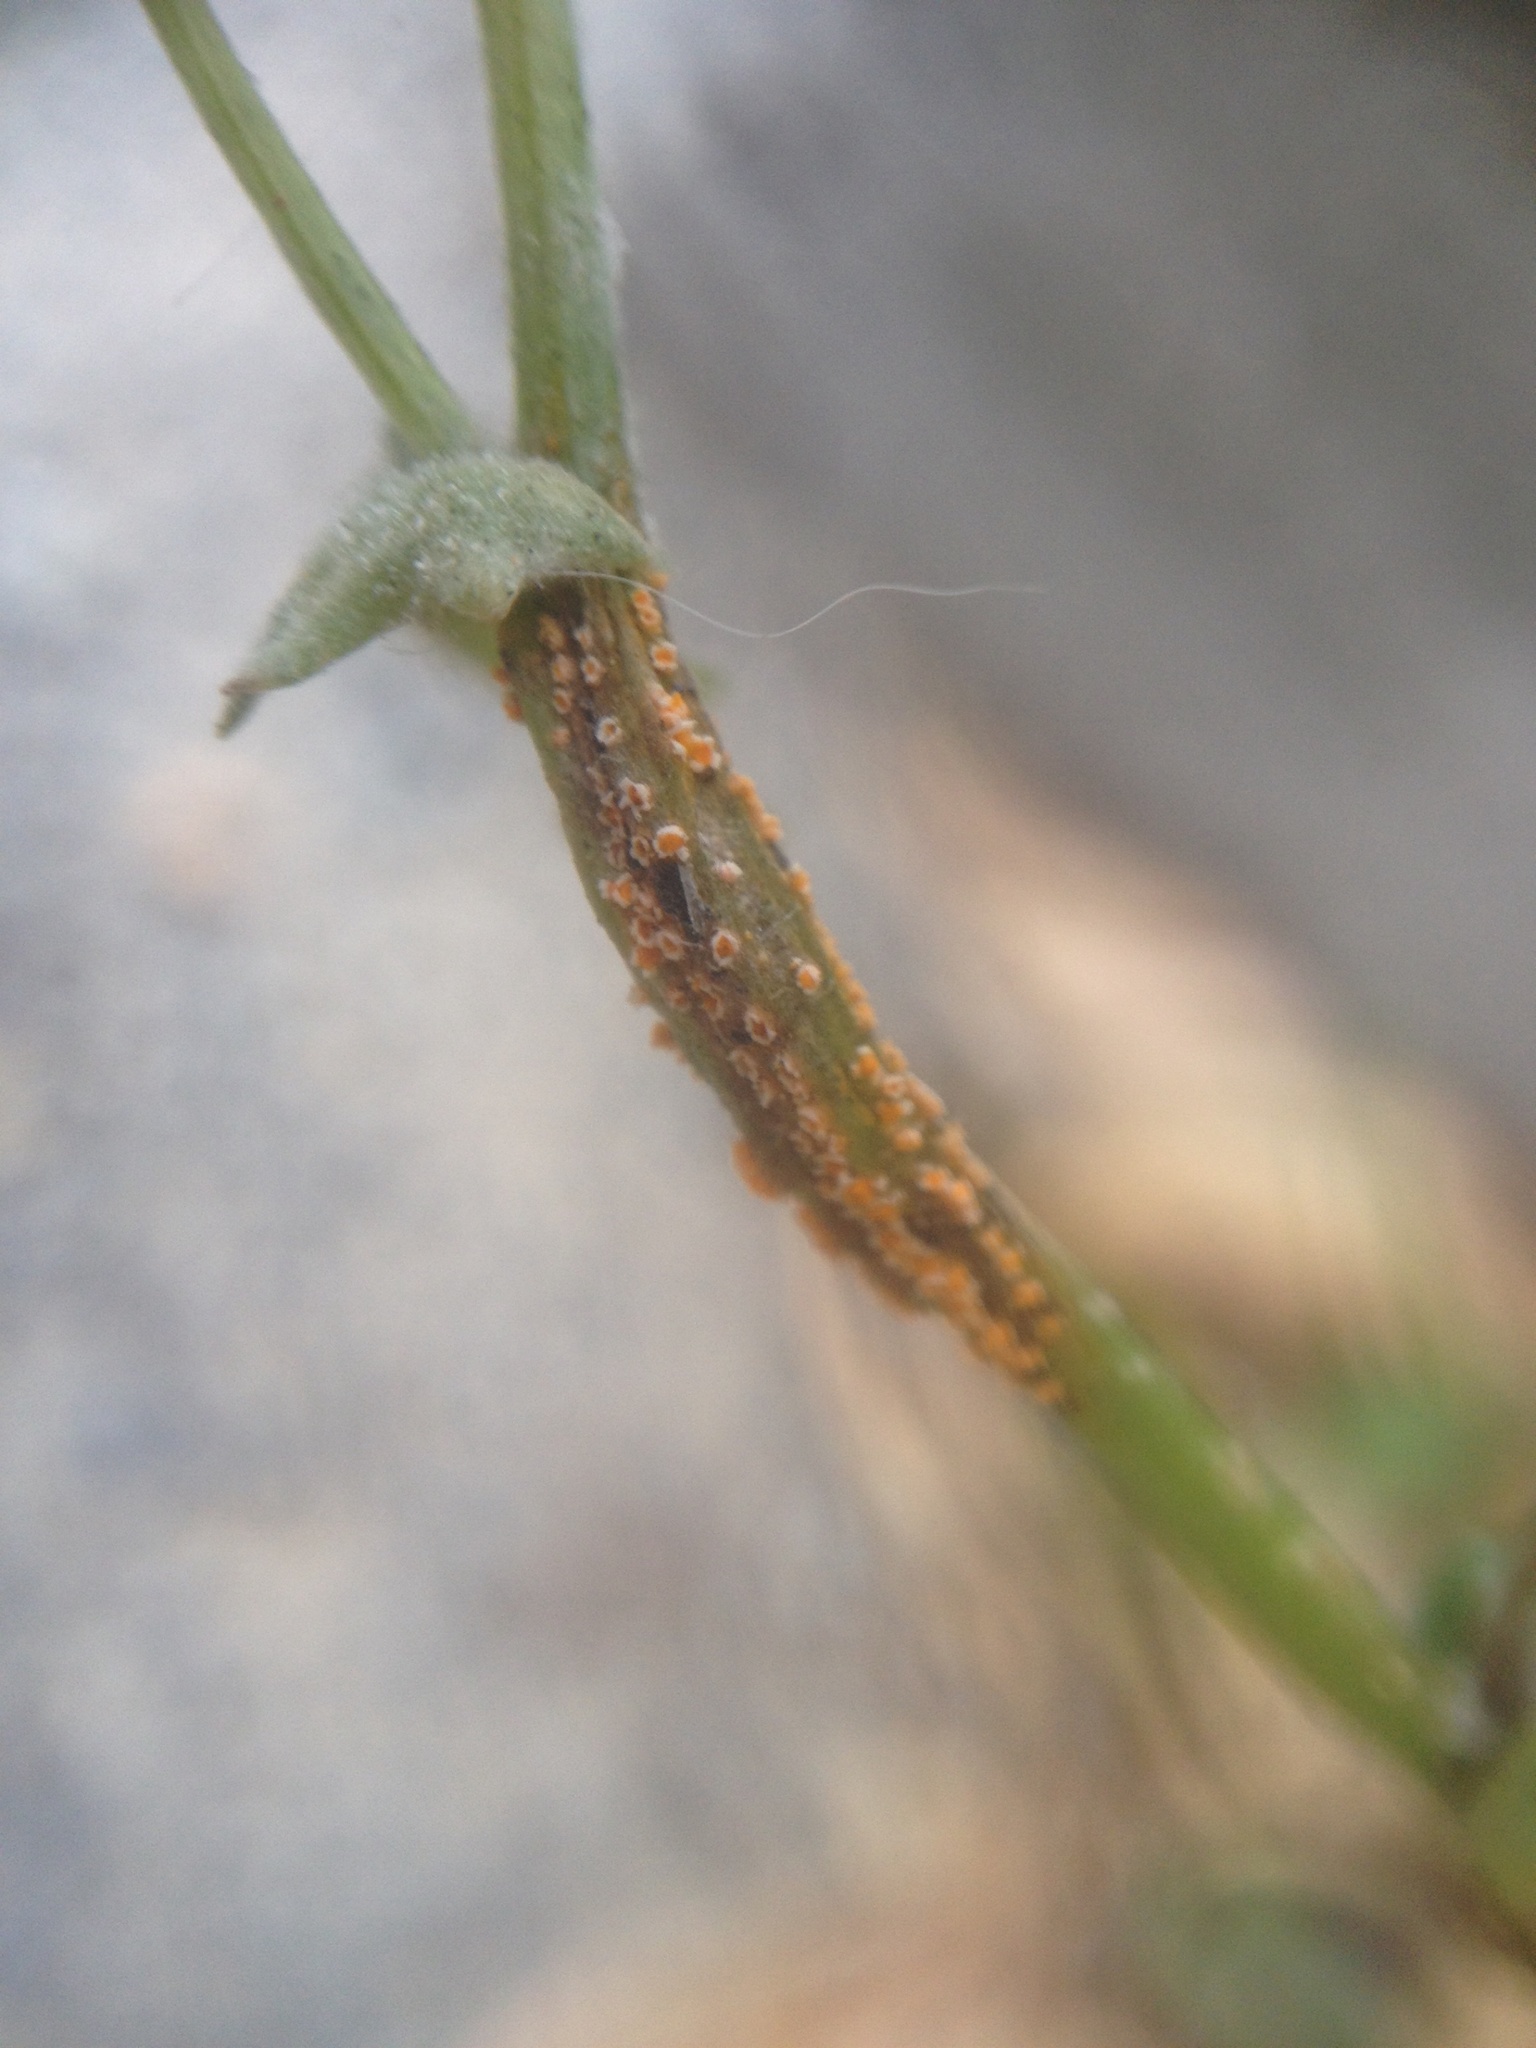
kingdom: Fungi
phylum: Basidiomycota
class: Pucciniomycetes
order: Pucciniales
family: Pucciniaceae
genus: Puccinia
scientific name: Puccinia lagenophorae
